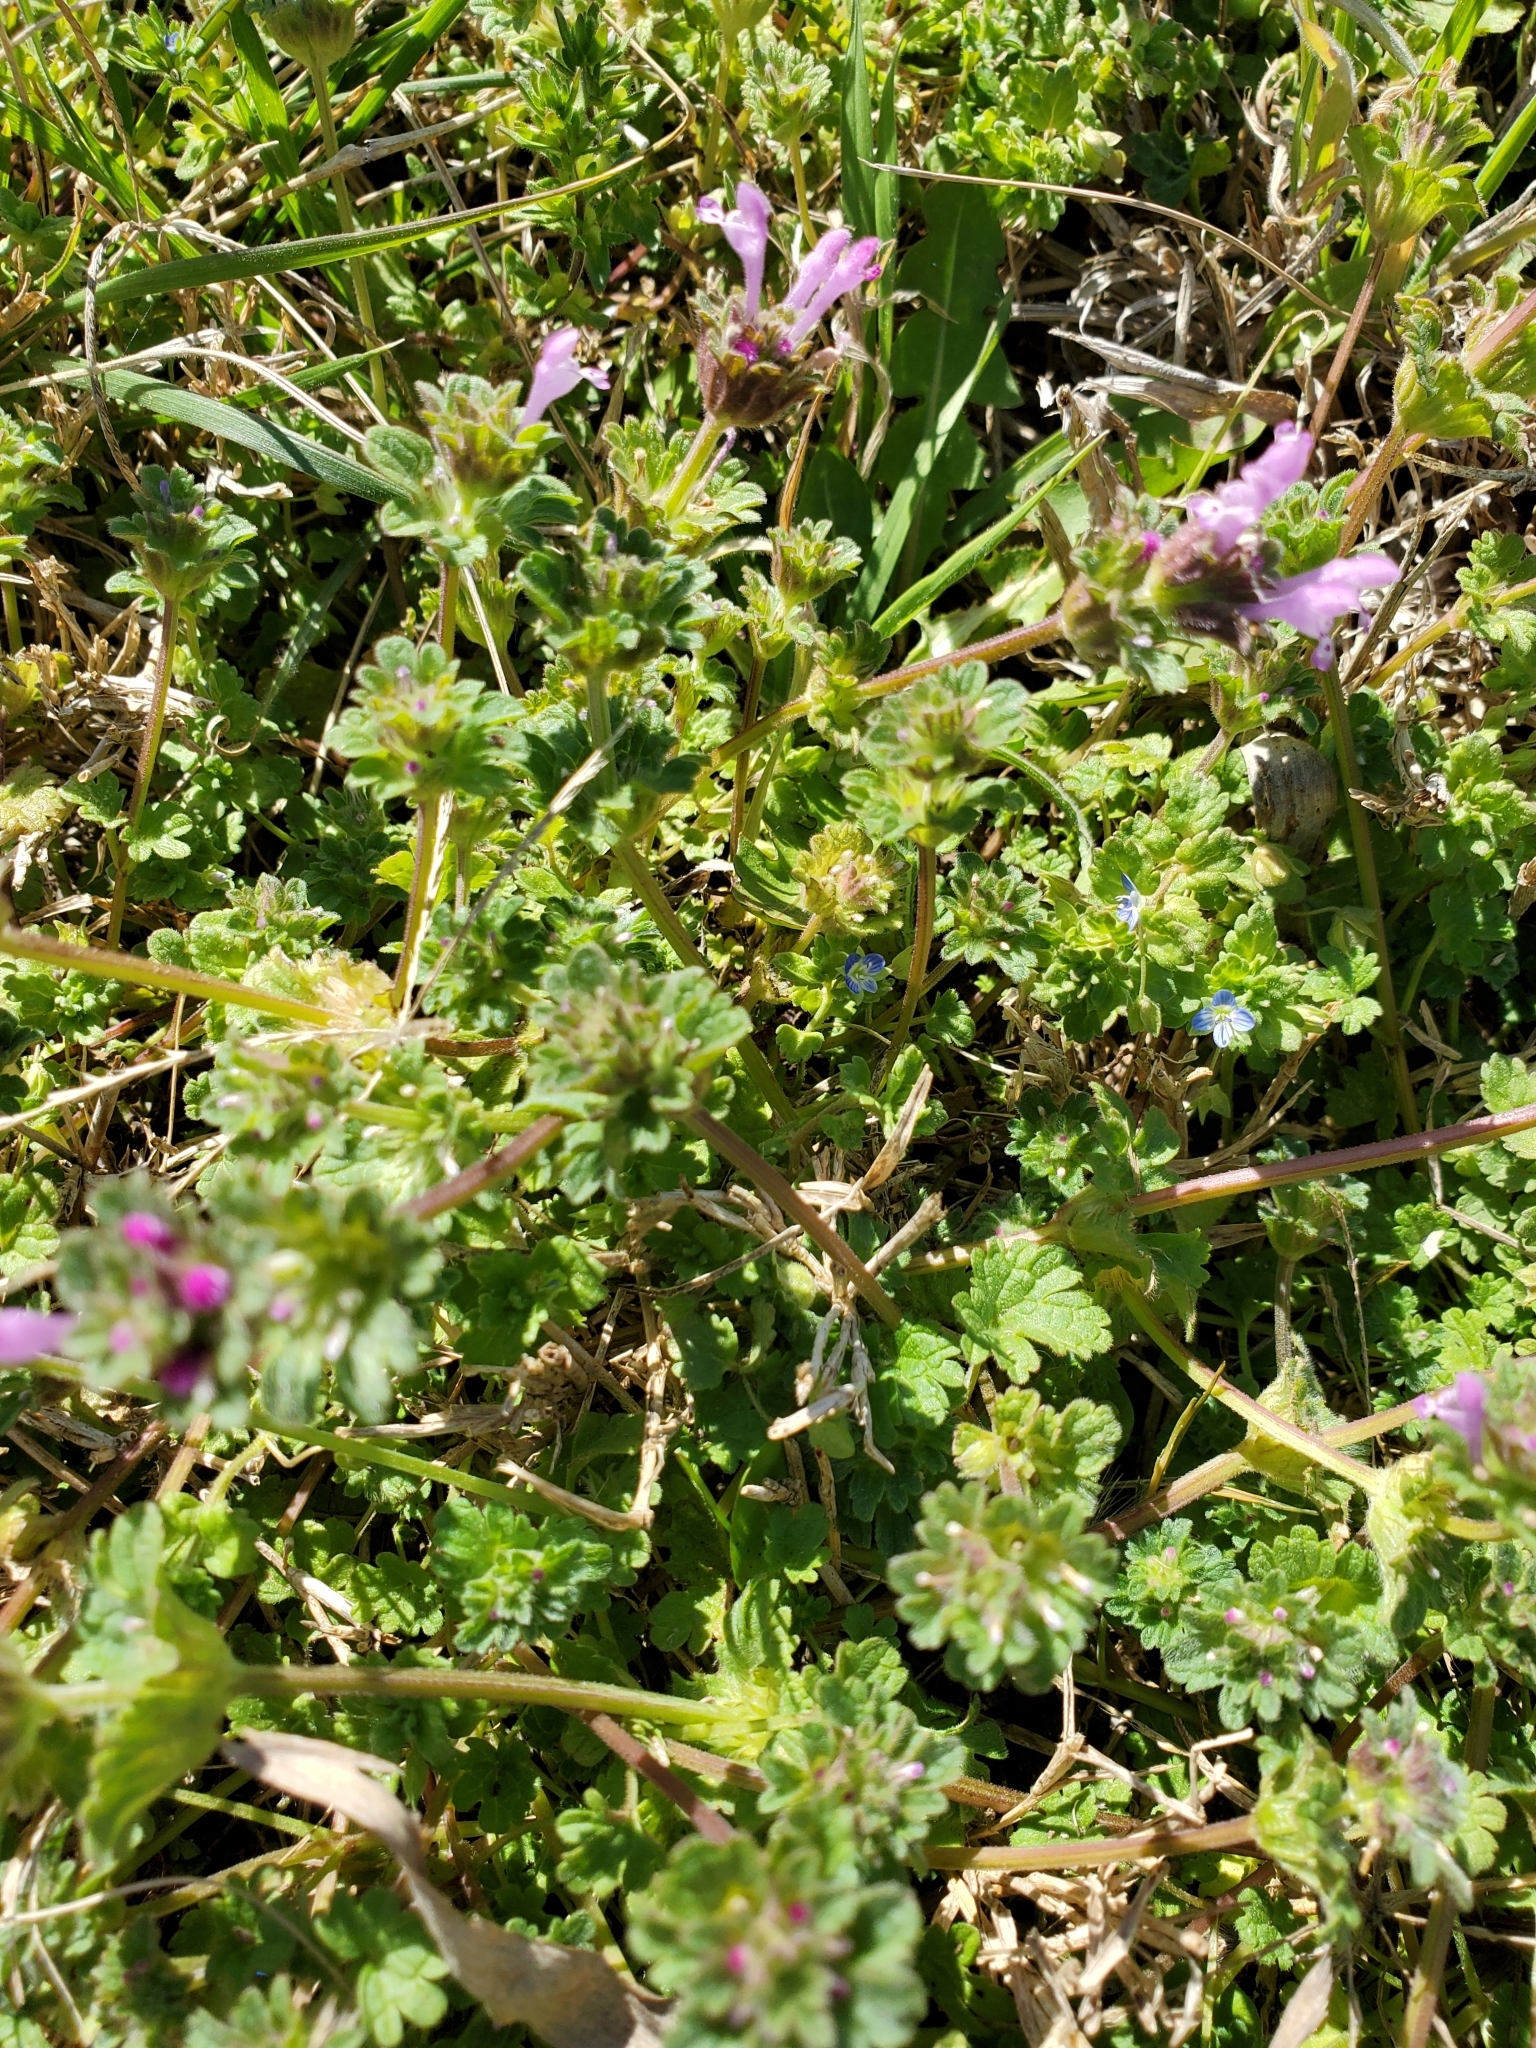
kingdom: Plantae
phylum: Tracheophyta
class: Magnoliopsida
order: Lamiales
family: Lamiaceae
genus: Lamium
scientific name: Lamium amplexicaule
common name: Henbit dead-nettle
